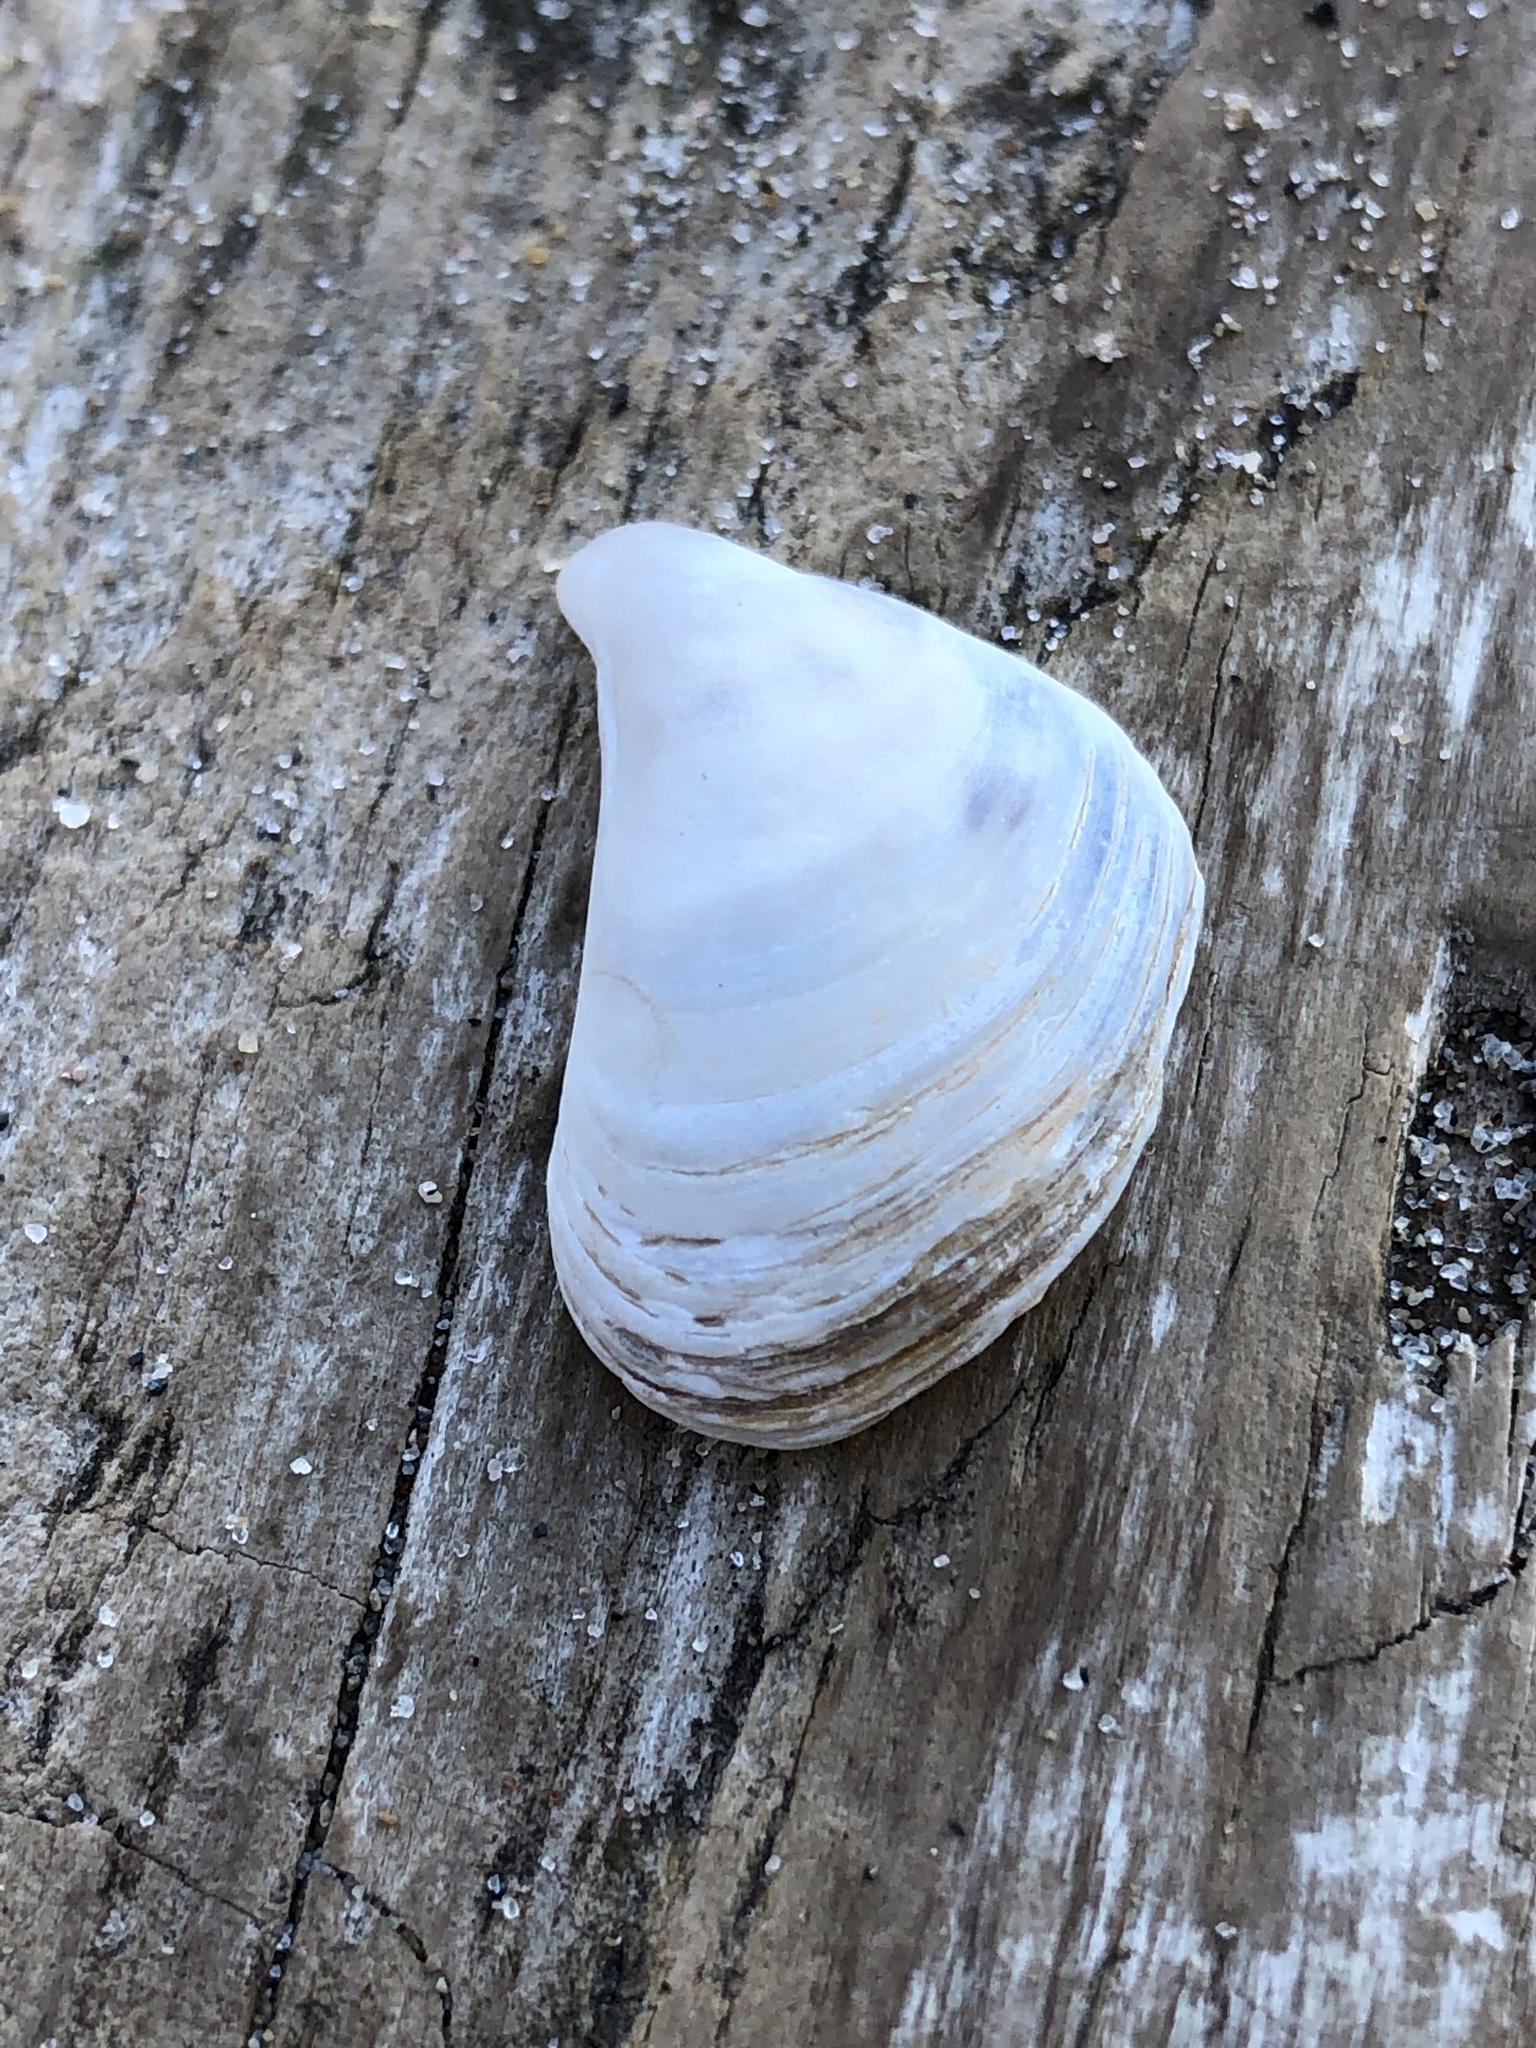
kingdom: Animalia
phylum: Mollusca
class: Bivalvia
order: Myida
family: Dreissenidae
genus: Dreissena
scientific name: Dreissena bugensis
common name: Quagga mussel
